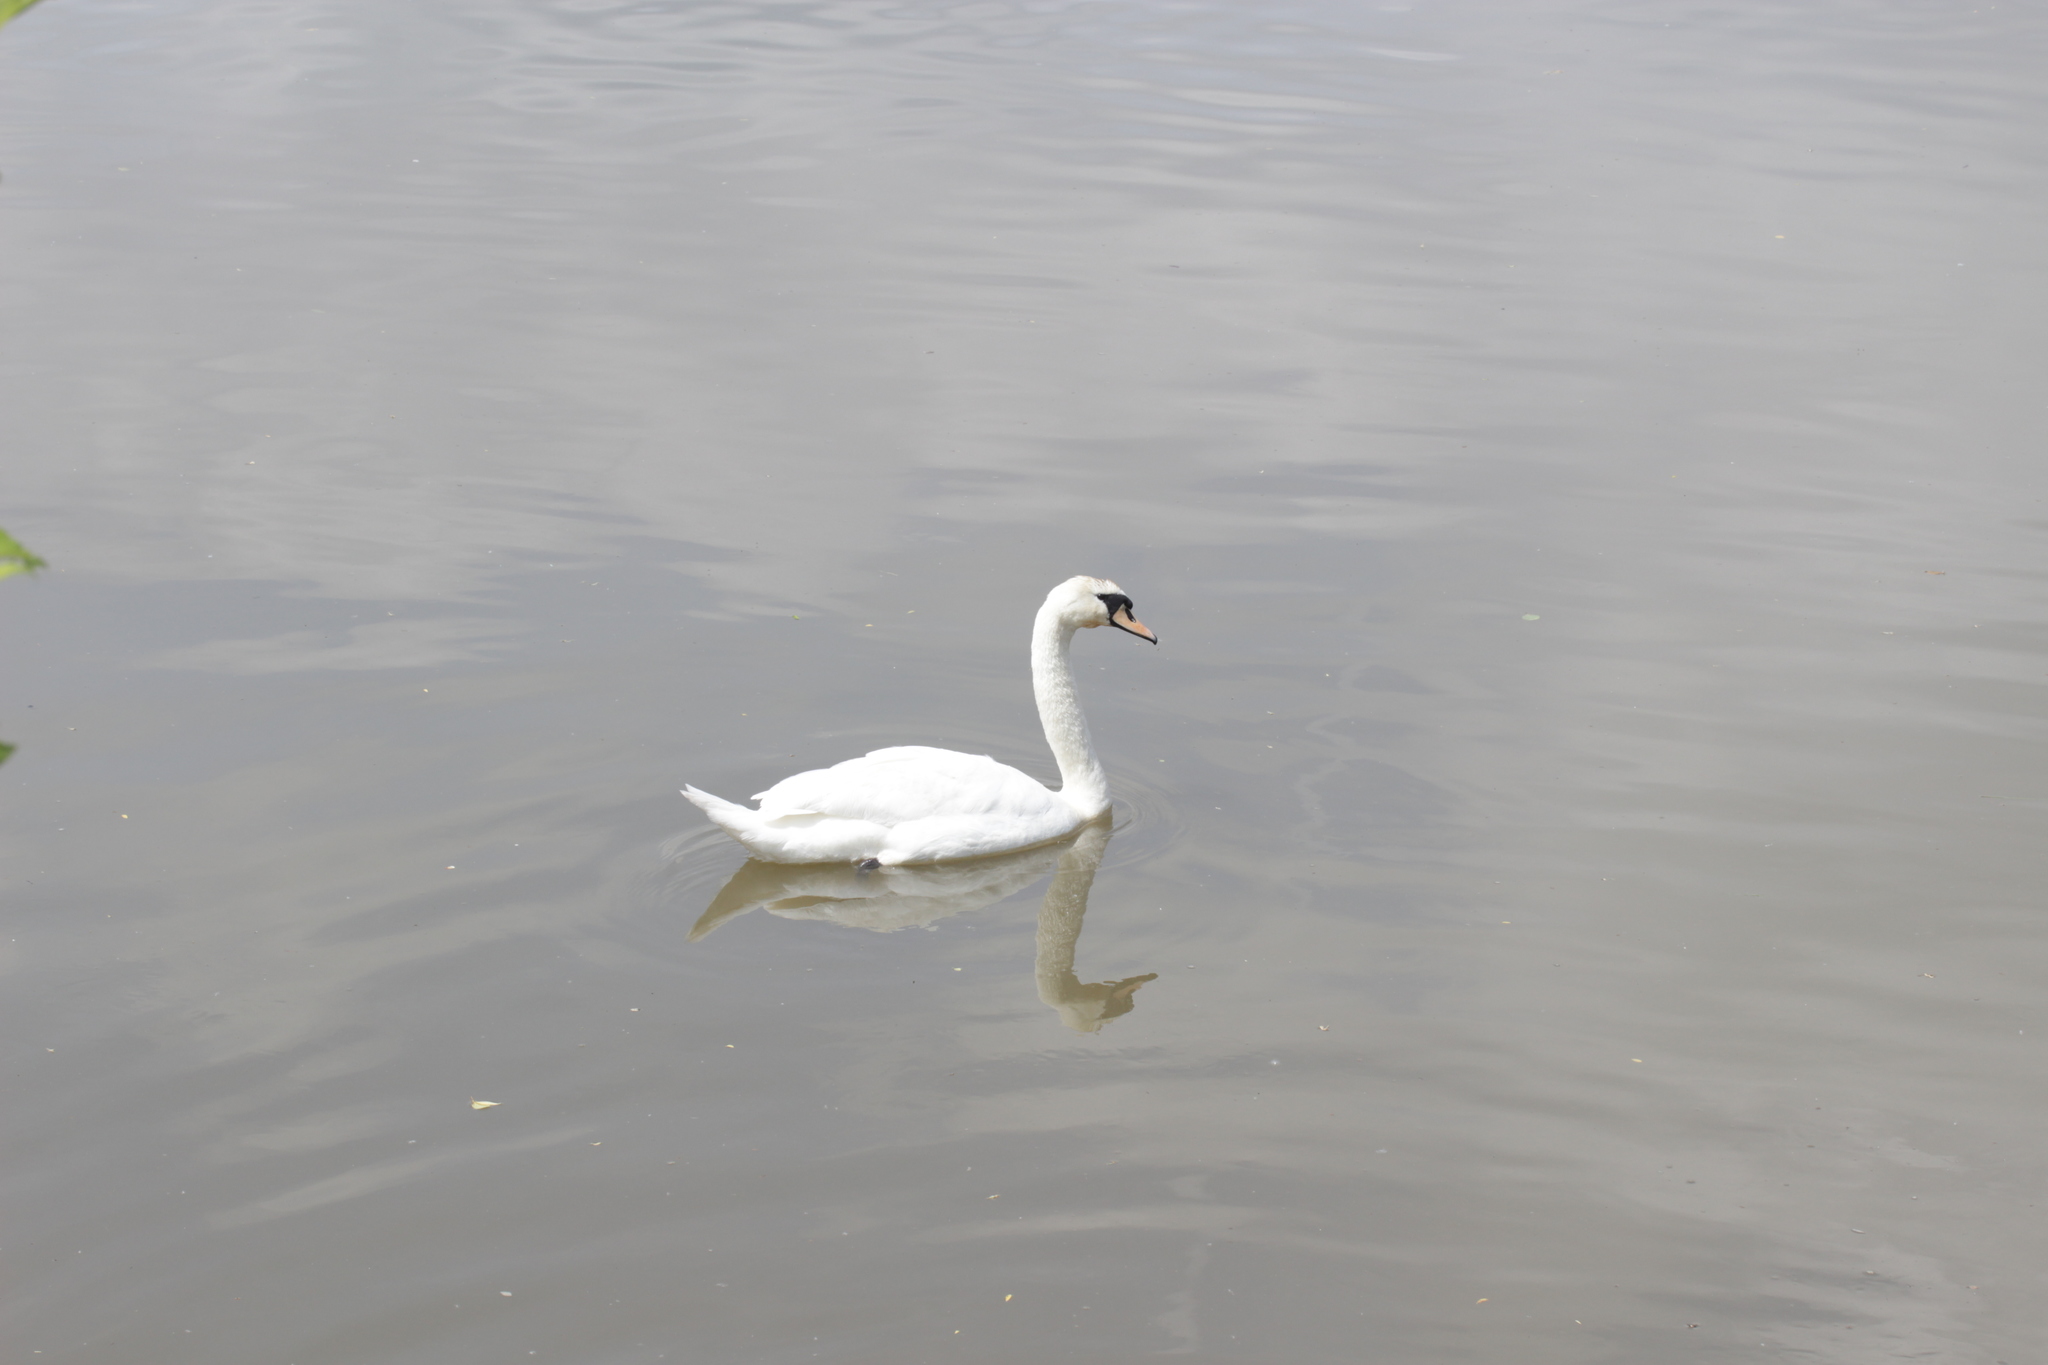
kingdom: Animalia
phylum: Chordata
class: Aves
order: Anseriformes
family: Anatidae
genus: Cygnus
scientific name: Cygnus olor
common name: Mute swan
